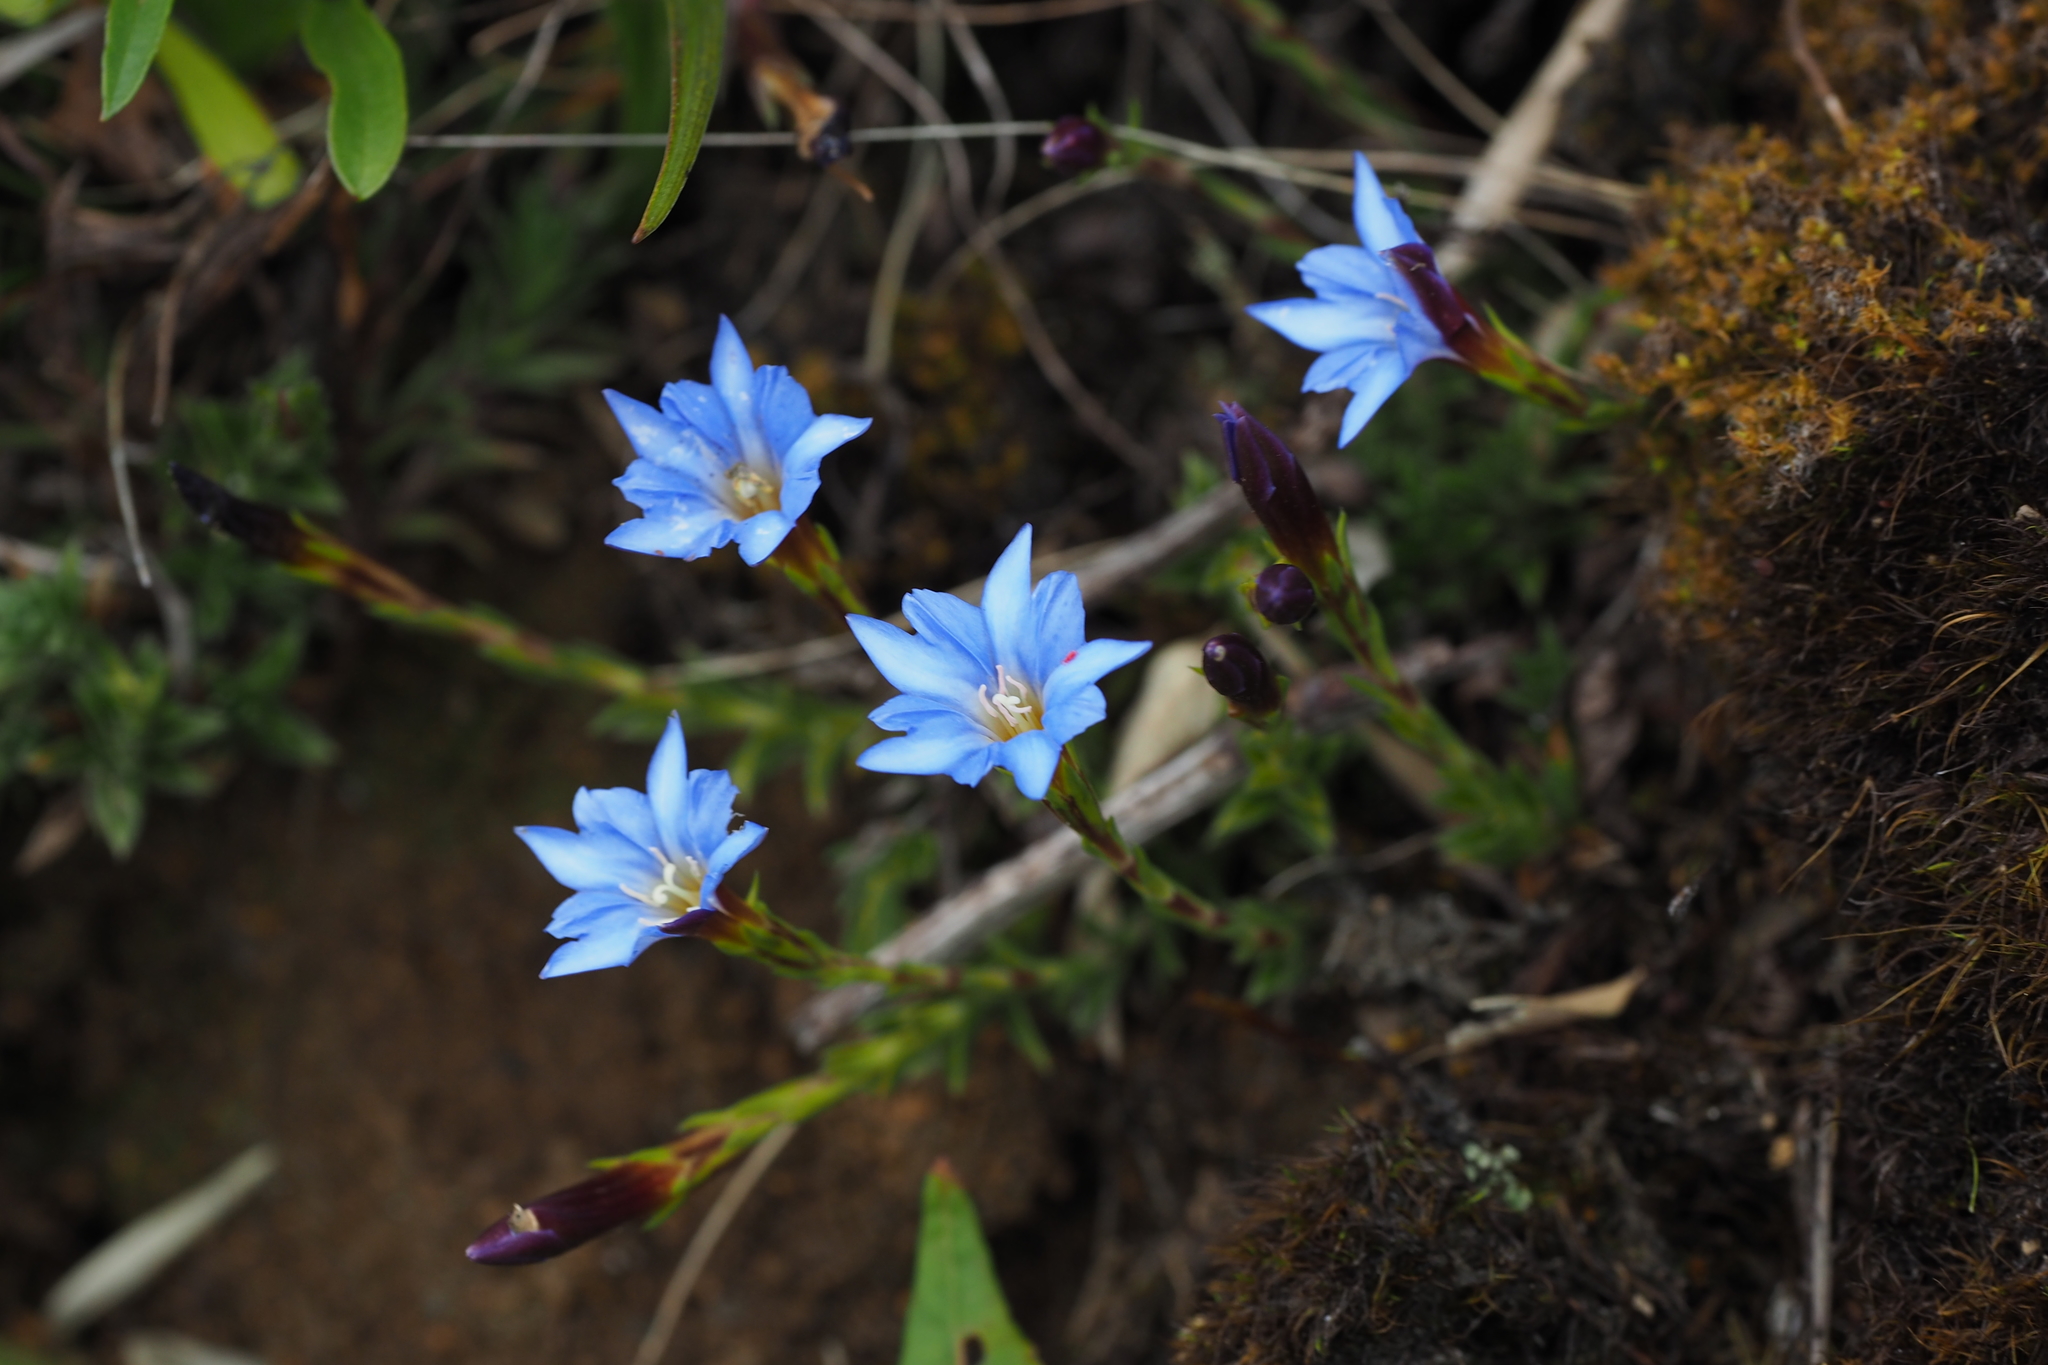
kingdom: Plantae
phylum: Tracheophyta
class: Magnoliopsida
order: Gentianales
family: Gentianaceae
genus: Gentiana
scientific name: Gentiana arisanensis
